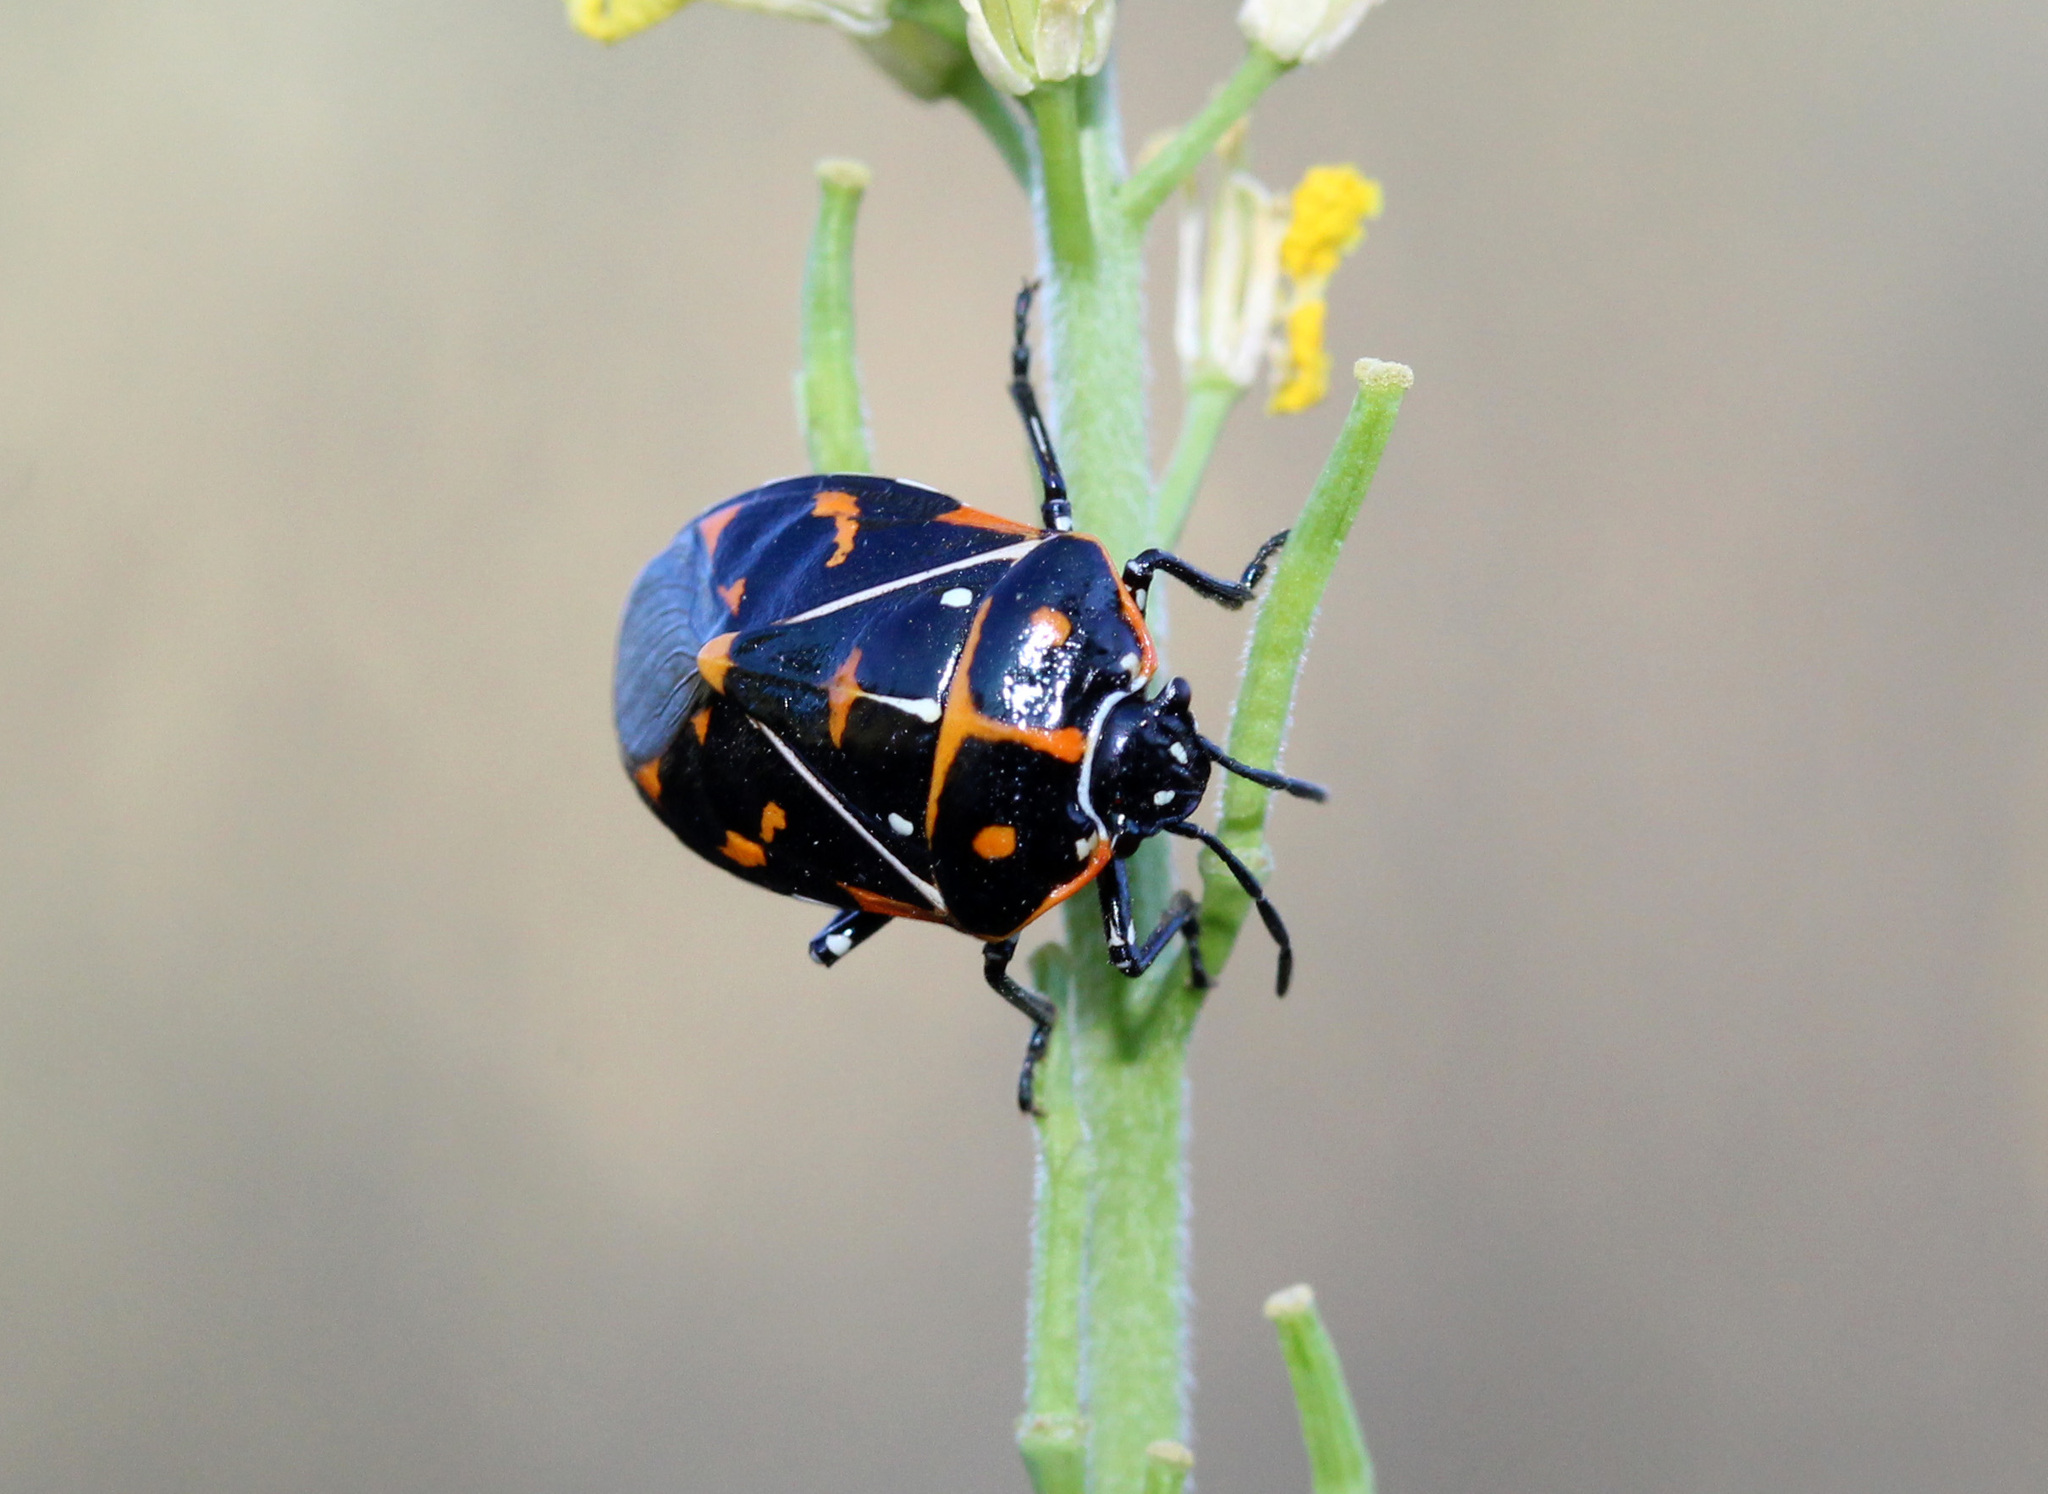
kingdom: Animalia
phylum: Arthropoda
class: Insecta
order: Hemiptera
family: Pentatomidae
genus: Murgantia
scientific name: Murgantia histrionica
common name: Harlequin bug
